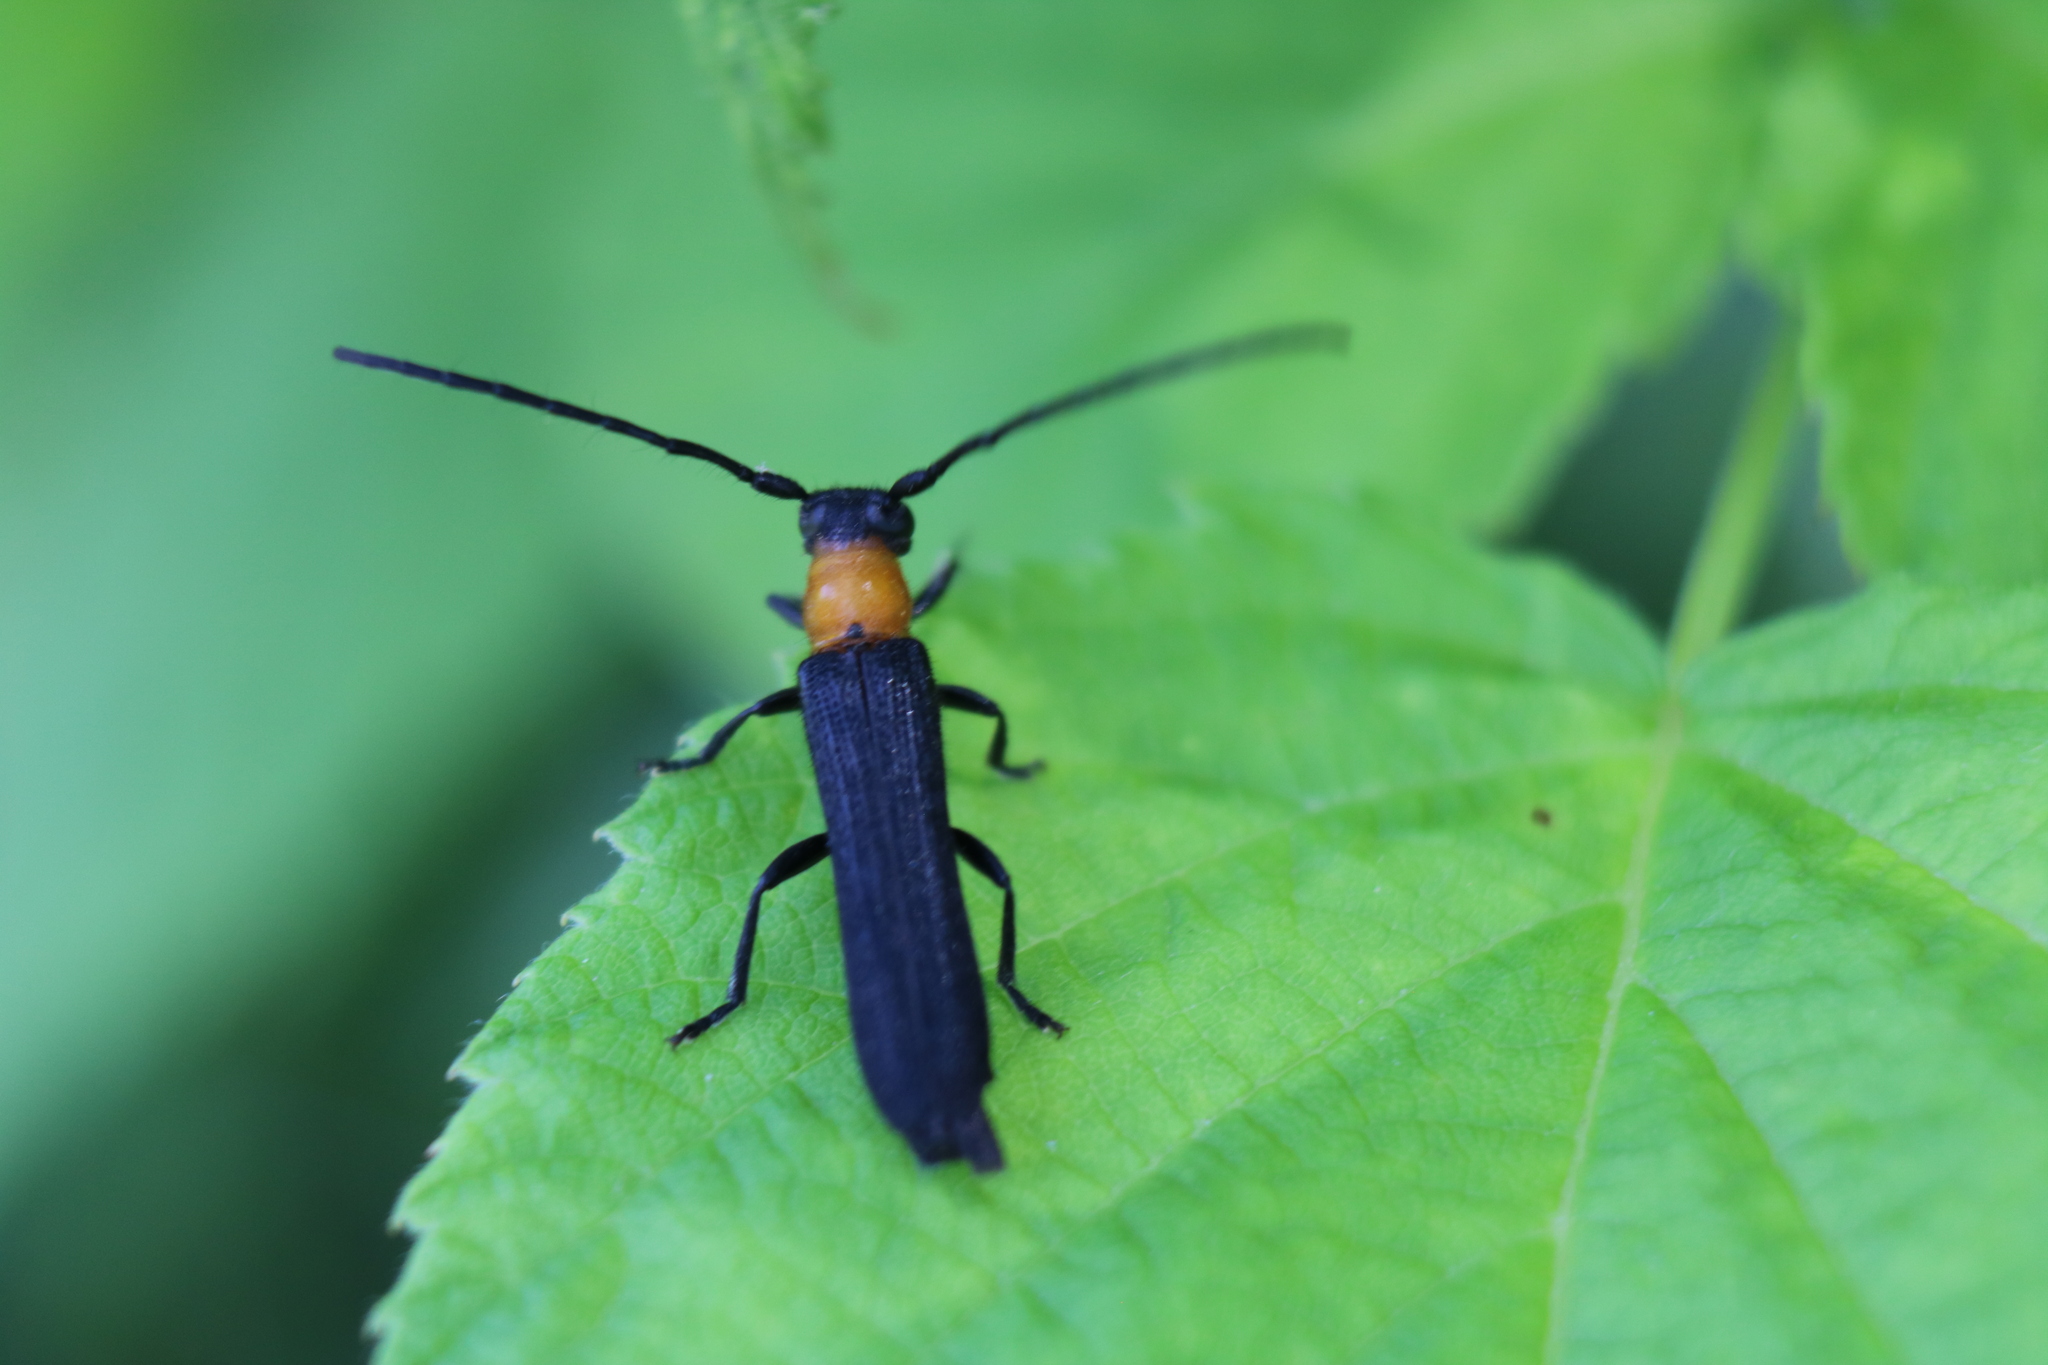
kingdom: Animalia
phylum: Arthropoda
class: Insecta
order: Coleoptera
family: Cerambycidae
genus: Oberea
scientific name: Oberea affinis
